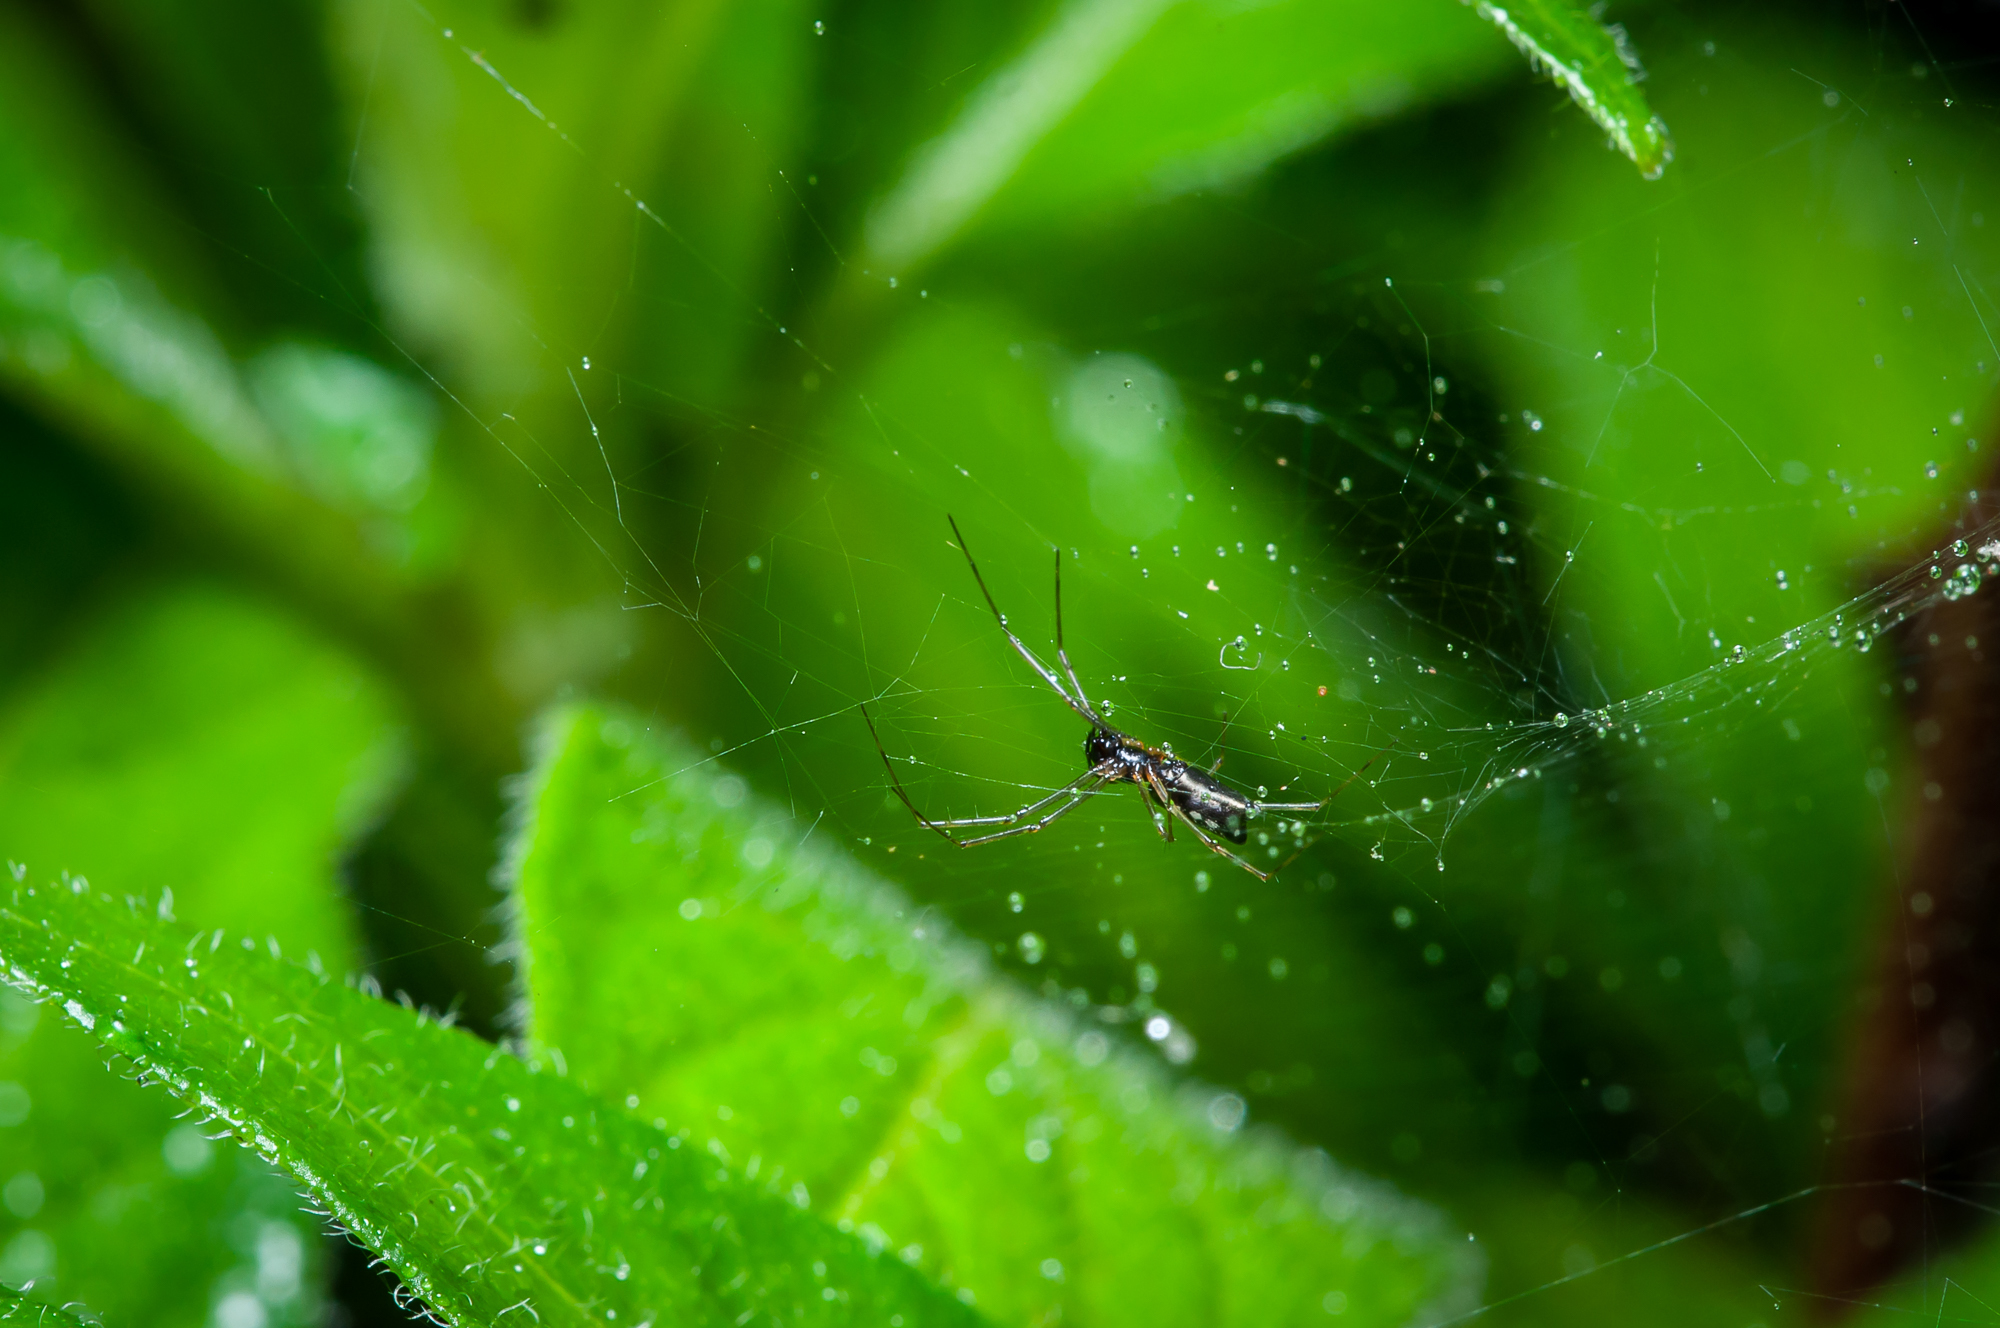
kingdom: Animalia
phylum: Arthropoda
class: Arachnida
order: Araneae
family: Linyphiidae
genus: Frontinella
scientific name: Frontinella pyramitela
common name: Bowl-and-doily spider
